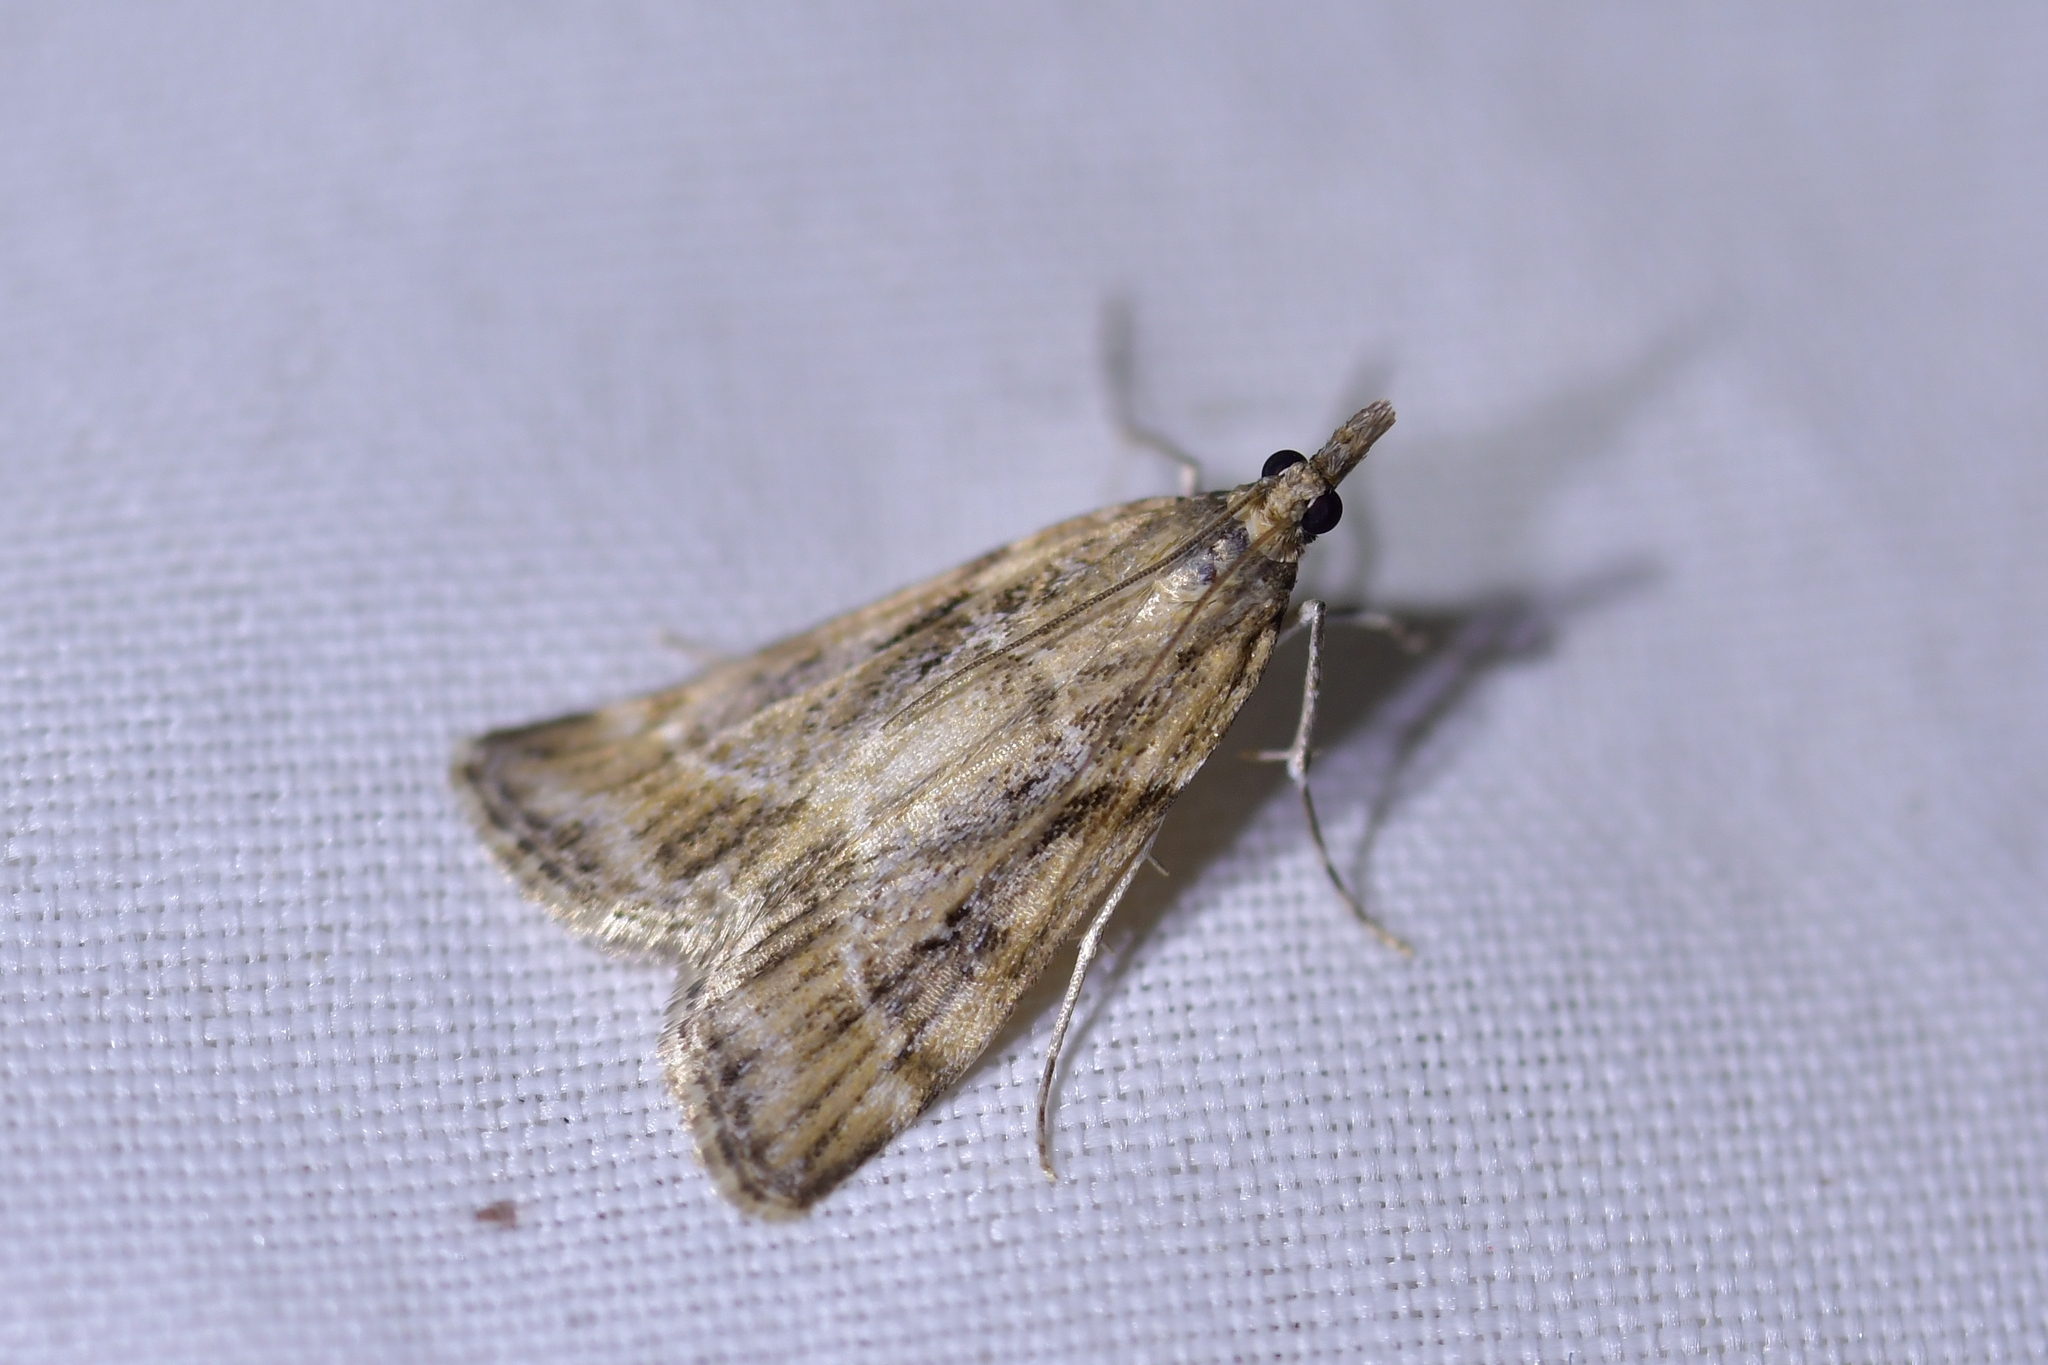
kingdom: Animalia
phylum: Arthropoda
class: Insecta
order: Lepidoptera
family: Crambidae
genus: Eudonia
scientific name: Eudonia chalara
